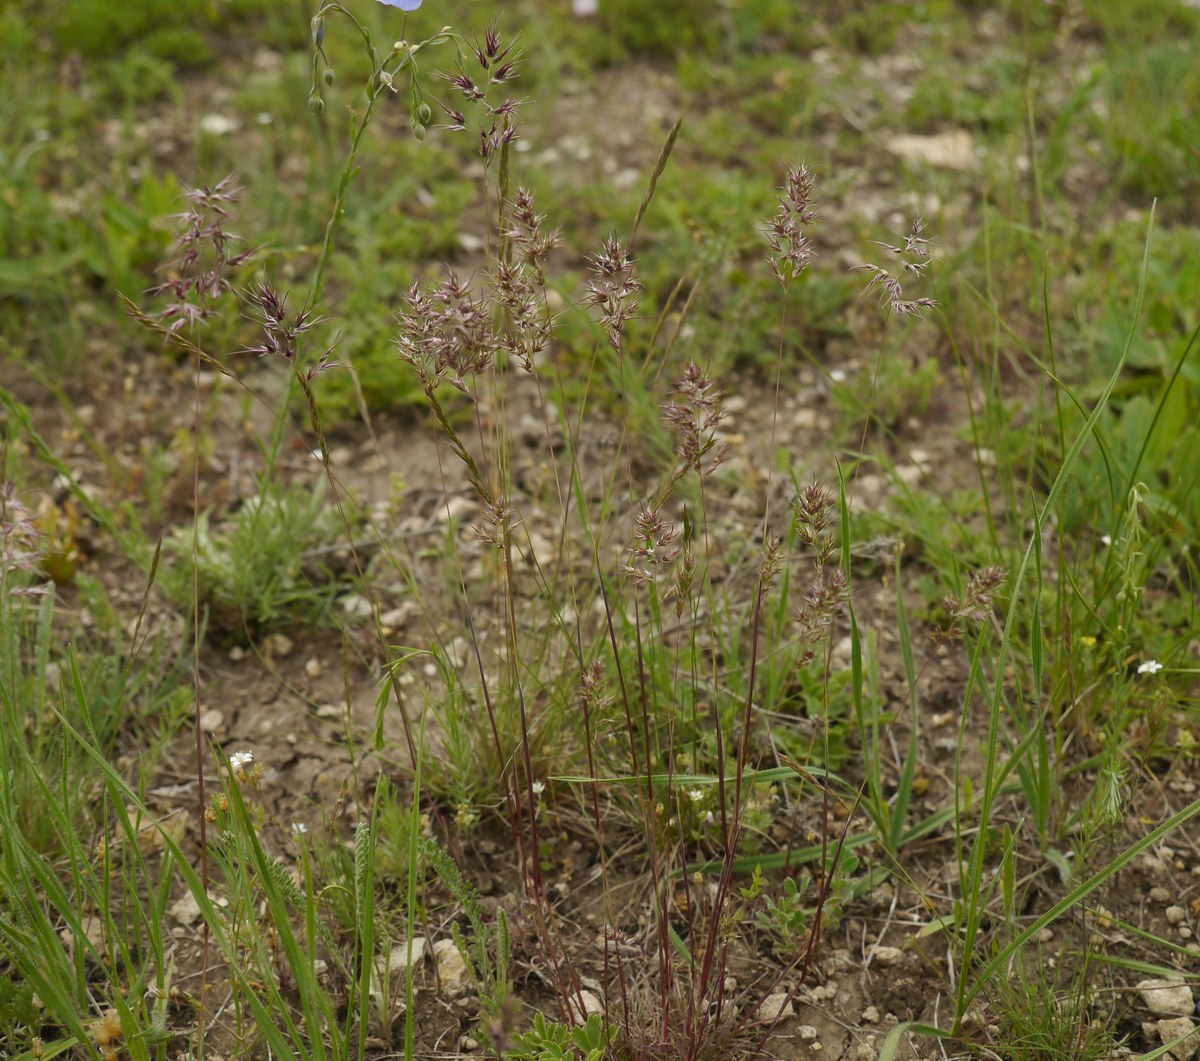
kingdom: Plantae
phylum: Tracheophyta
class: Liliopsida
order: Poales
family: Poaceae
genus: Poa
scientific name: Poa bulbosa
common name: Bulbous bluegrass
